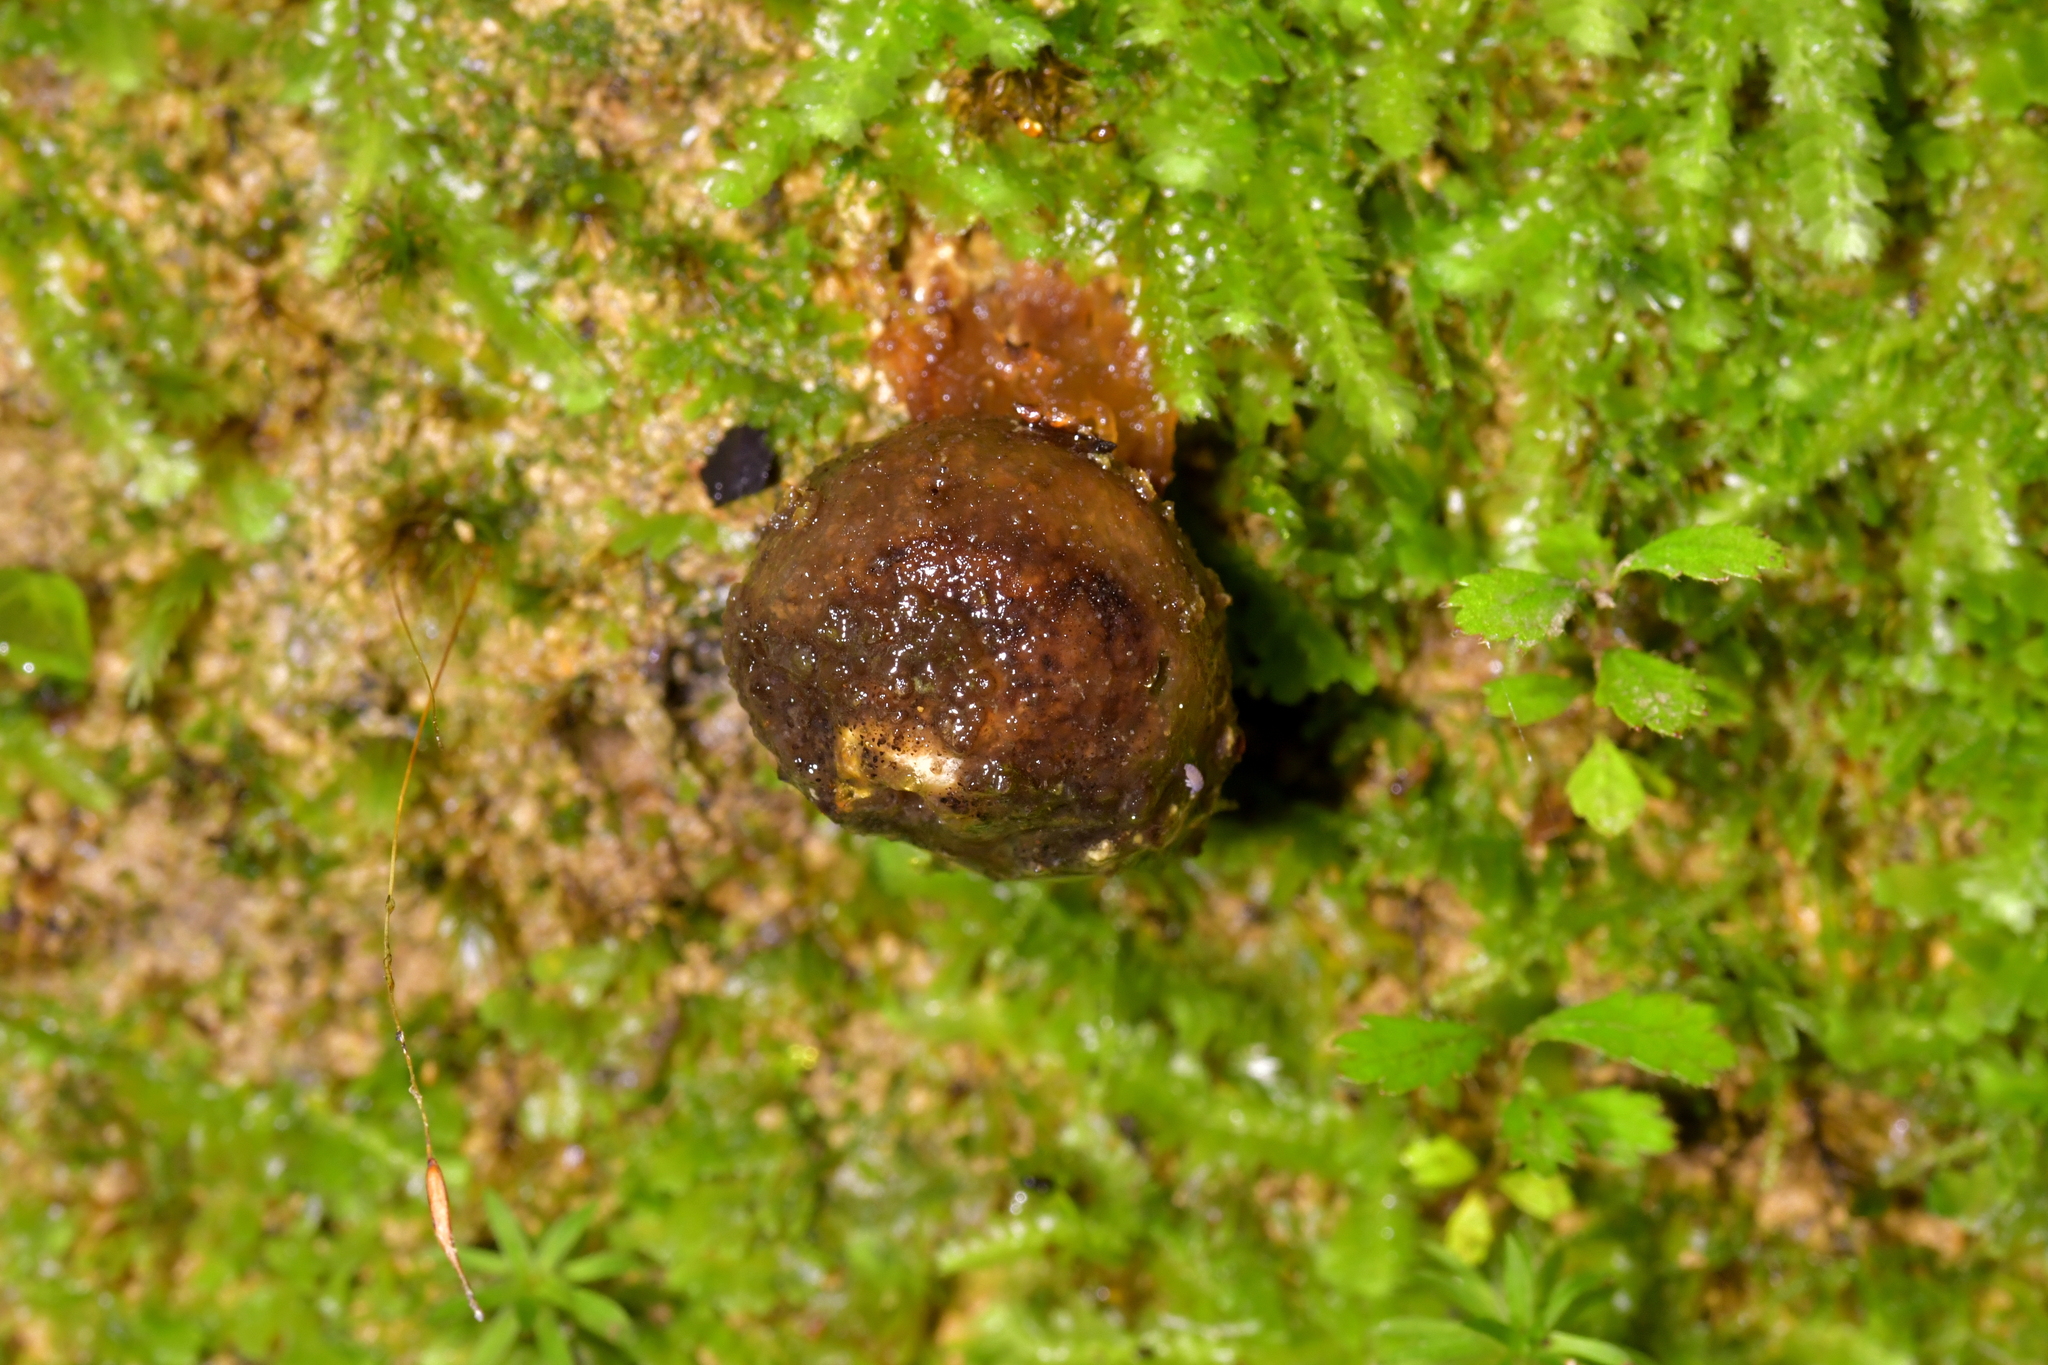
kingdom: Fungi
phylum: Basidiomycota
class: Agaricomycetes
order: Boletales
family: Calostomataceae
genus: Calostoma
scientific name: Calostoma rodwayi
